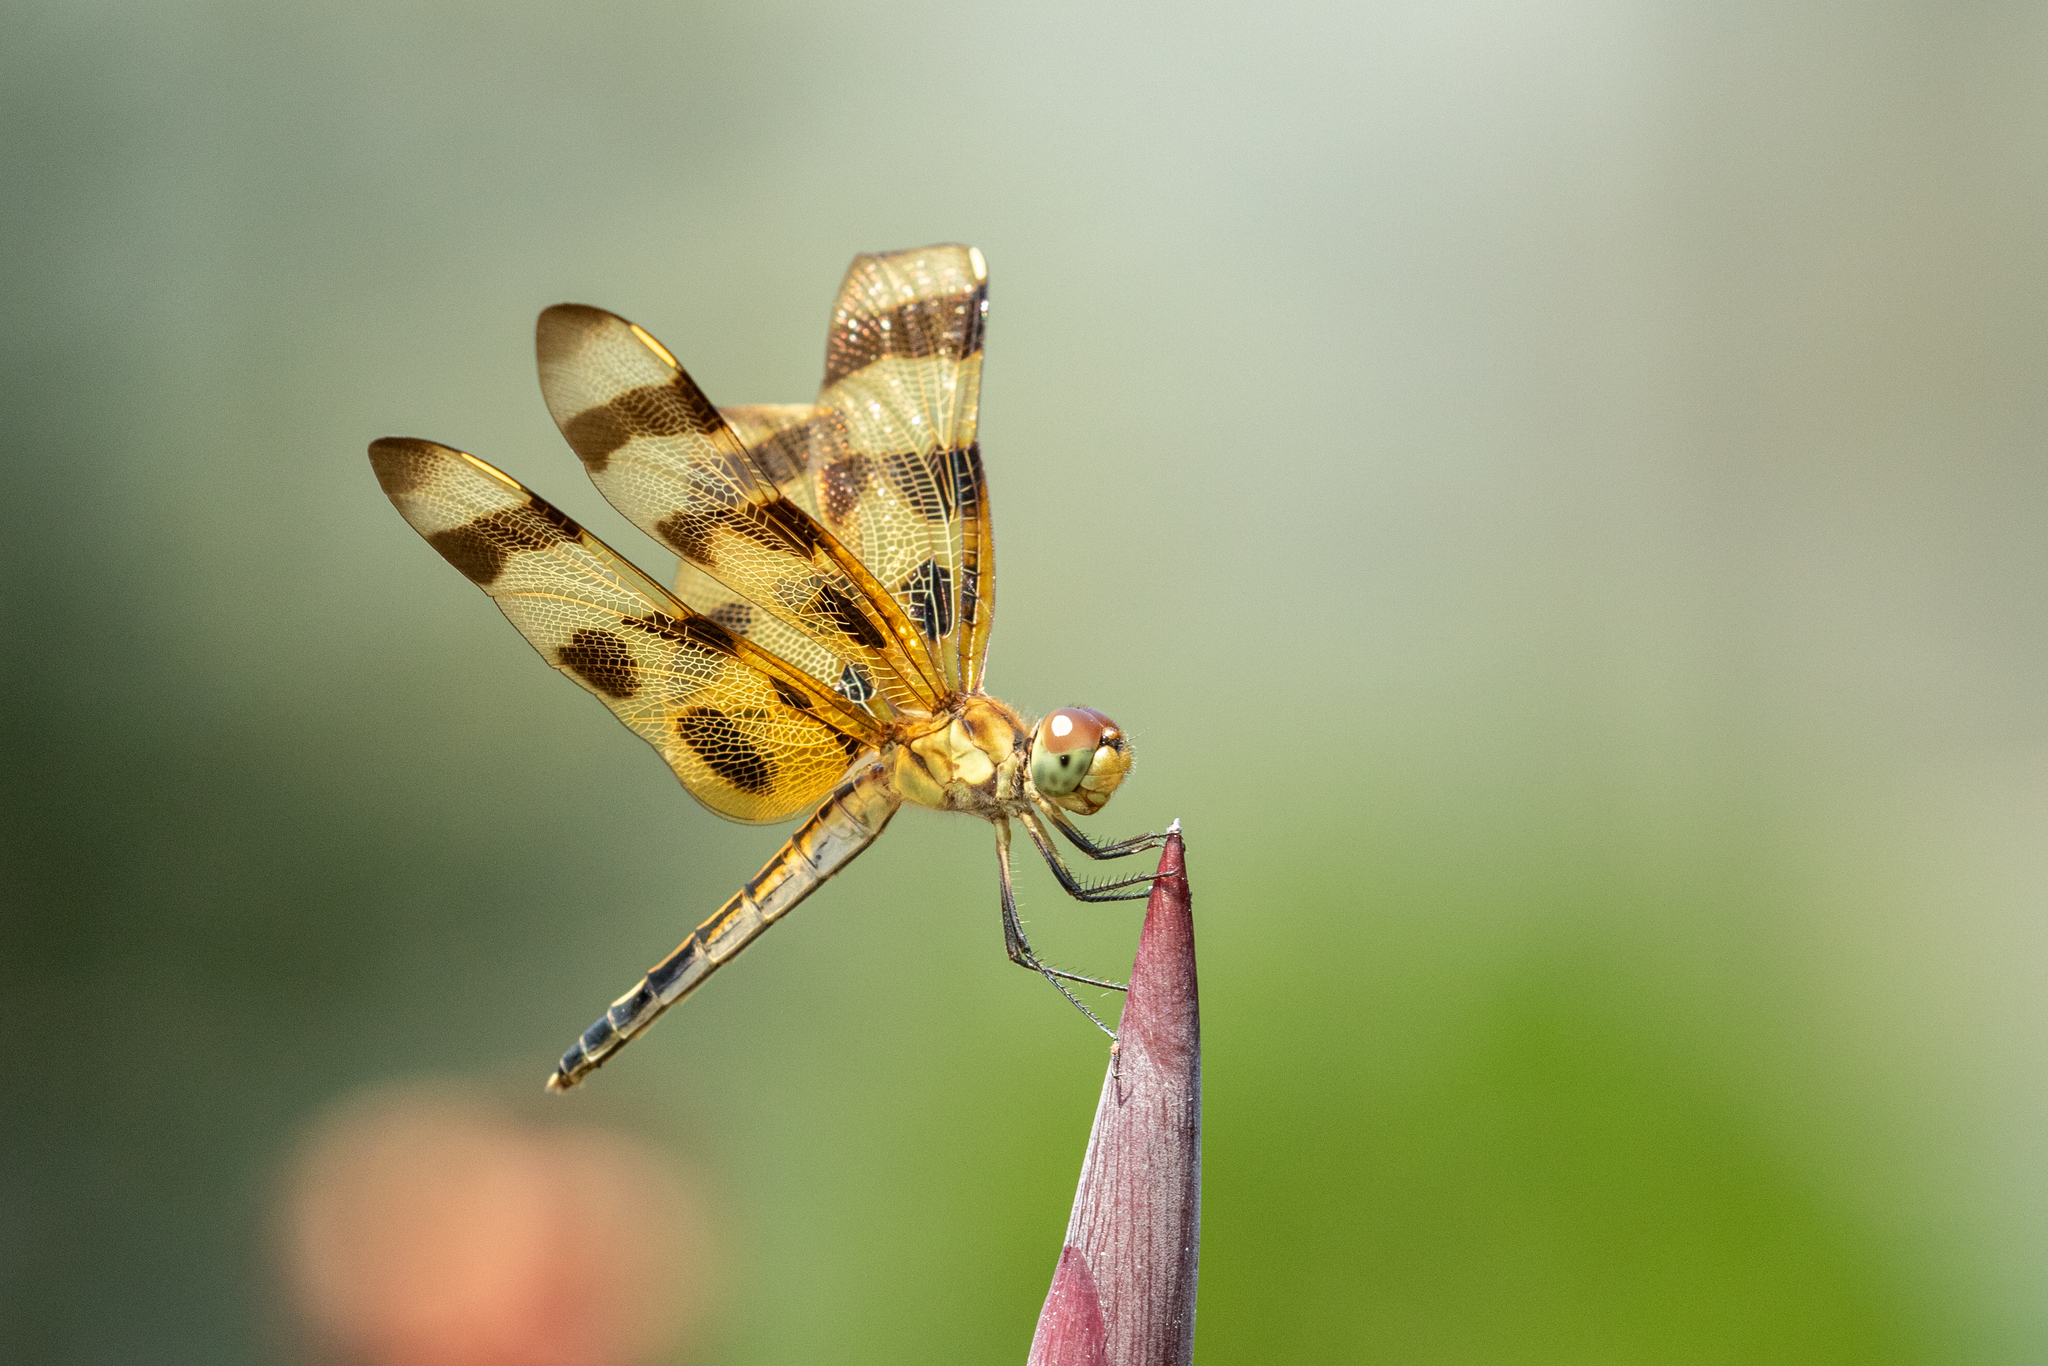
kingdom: Animalia
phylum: Arthropoda
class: Insecta
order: Odonata
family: Libellulidae
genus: Celithemis
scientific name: Celithemis eponina
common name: Halloween pennant
